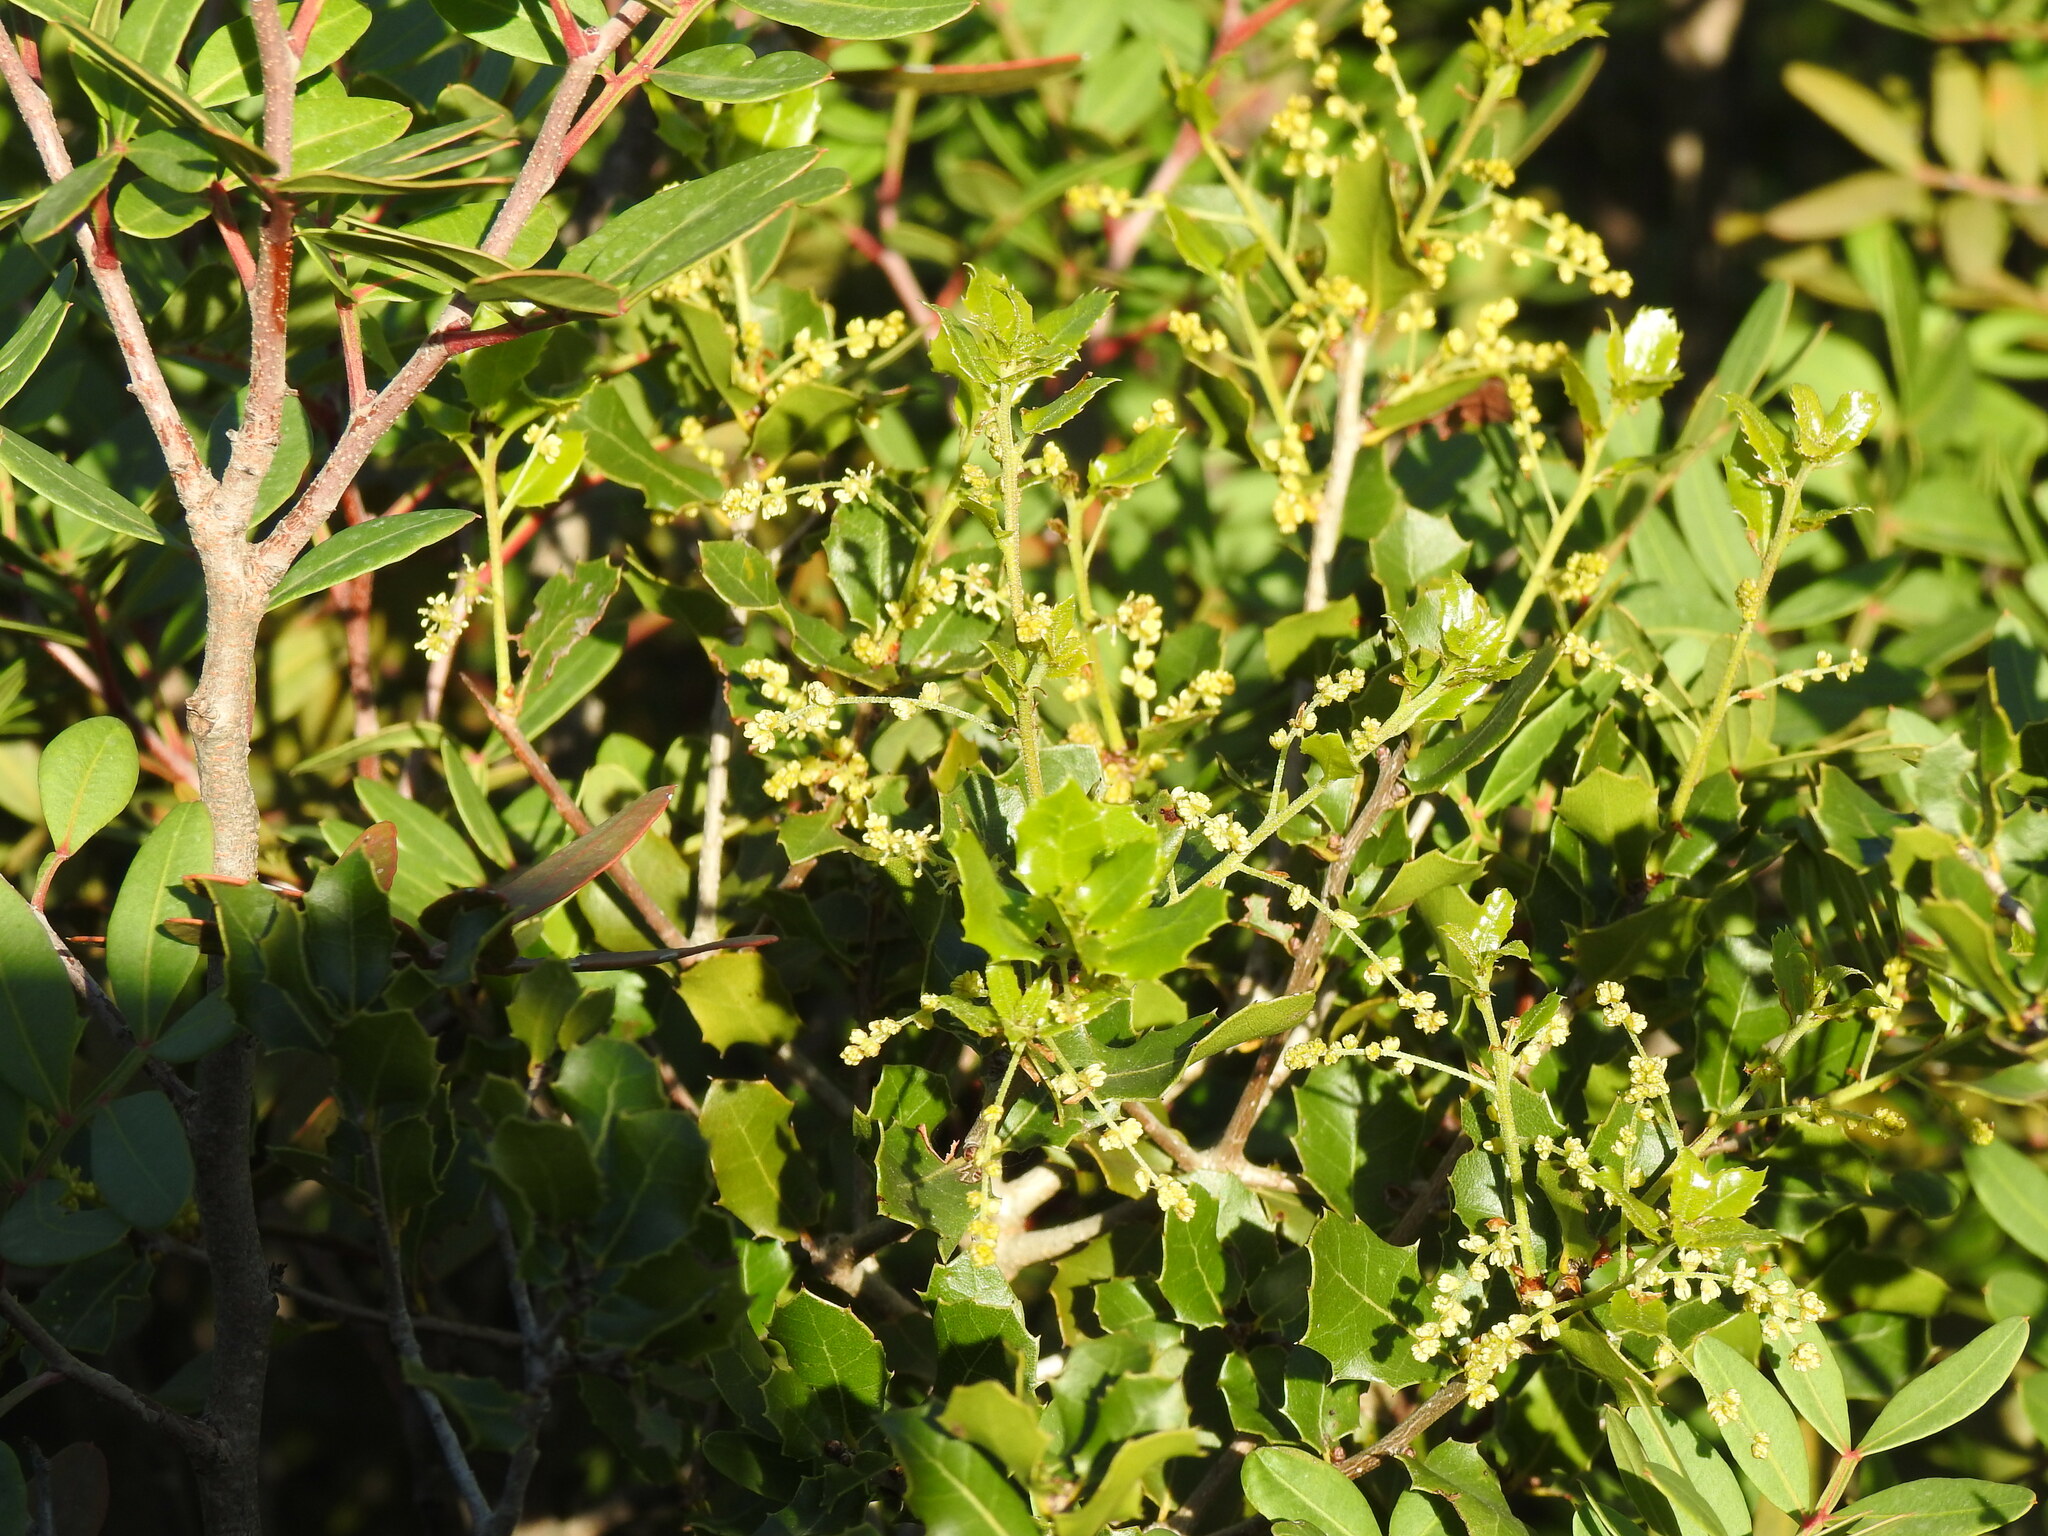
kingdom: Plantae
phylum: Tracheophyta
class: Magnoliopsida
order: Fagales
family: Fagaceae
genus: Quercus
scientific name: Quercus coccifera
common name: Kermes oak
